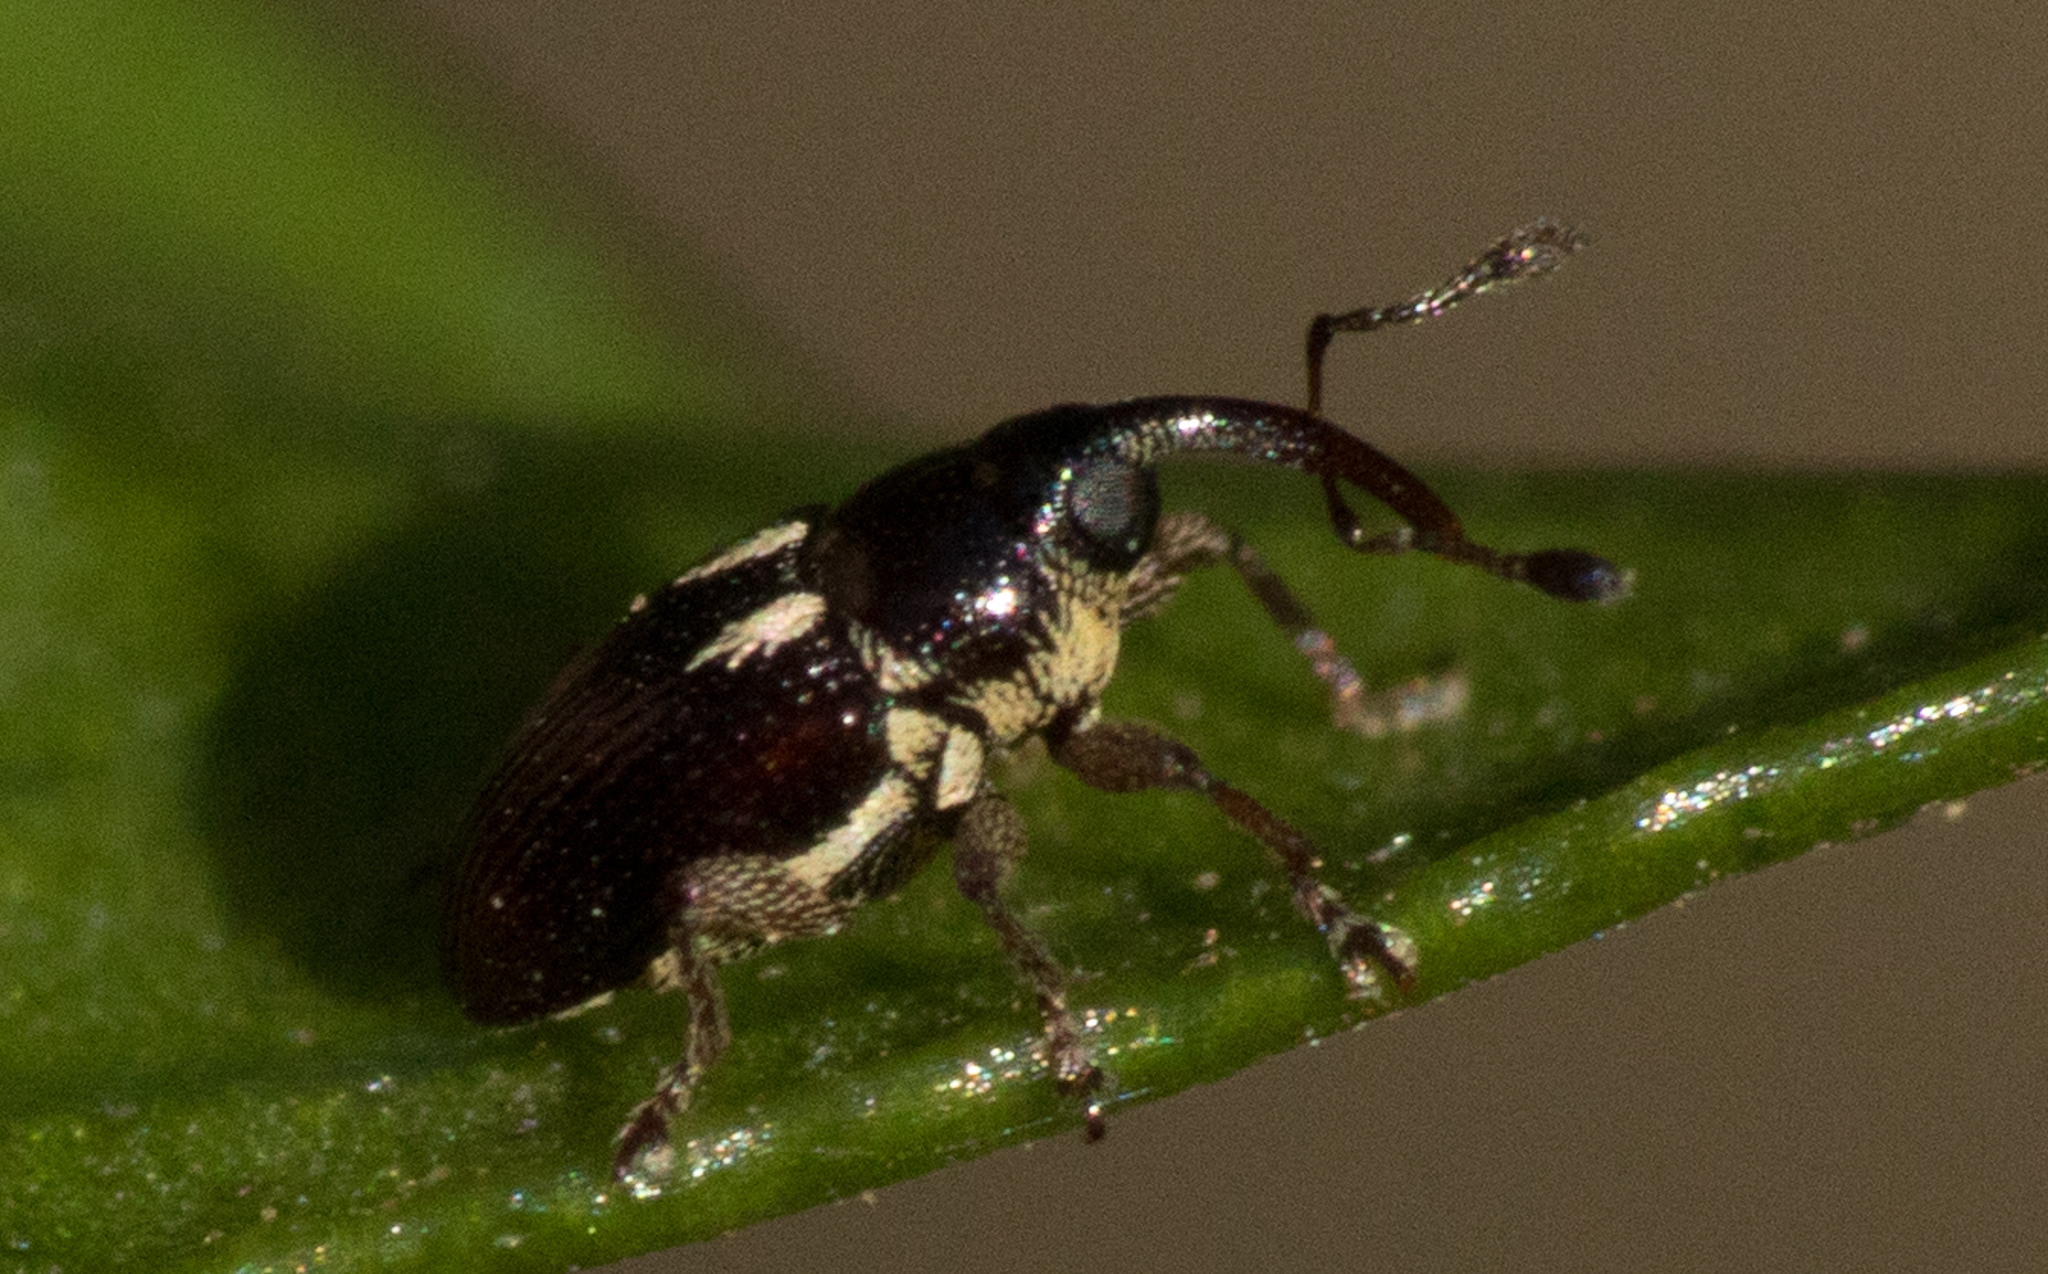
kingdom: Animalia
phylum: Arthropoda
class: Insecta
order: Coleoptera
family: Curculionidae
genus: Dimesus
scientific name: Dimesus
